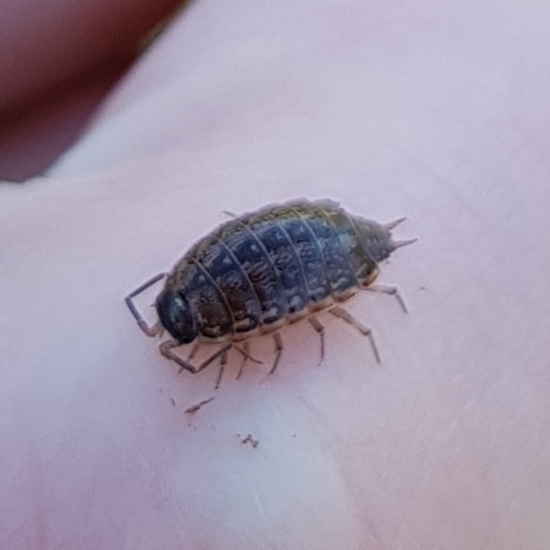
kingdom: Animalia
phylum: Arthropoda
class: Malacostraca
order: Isopoda
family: Philosciidae
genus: Philoscia
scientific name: Philoscia muscorum
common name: Common striped woodlouse
